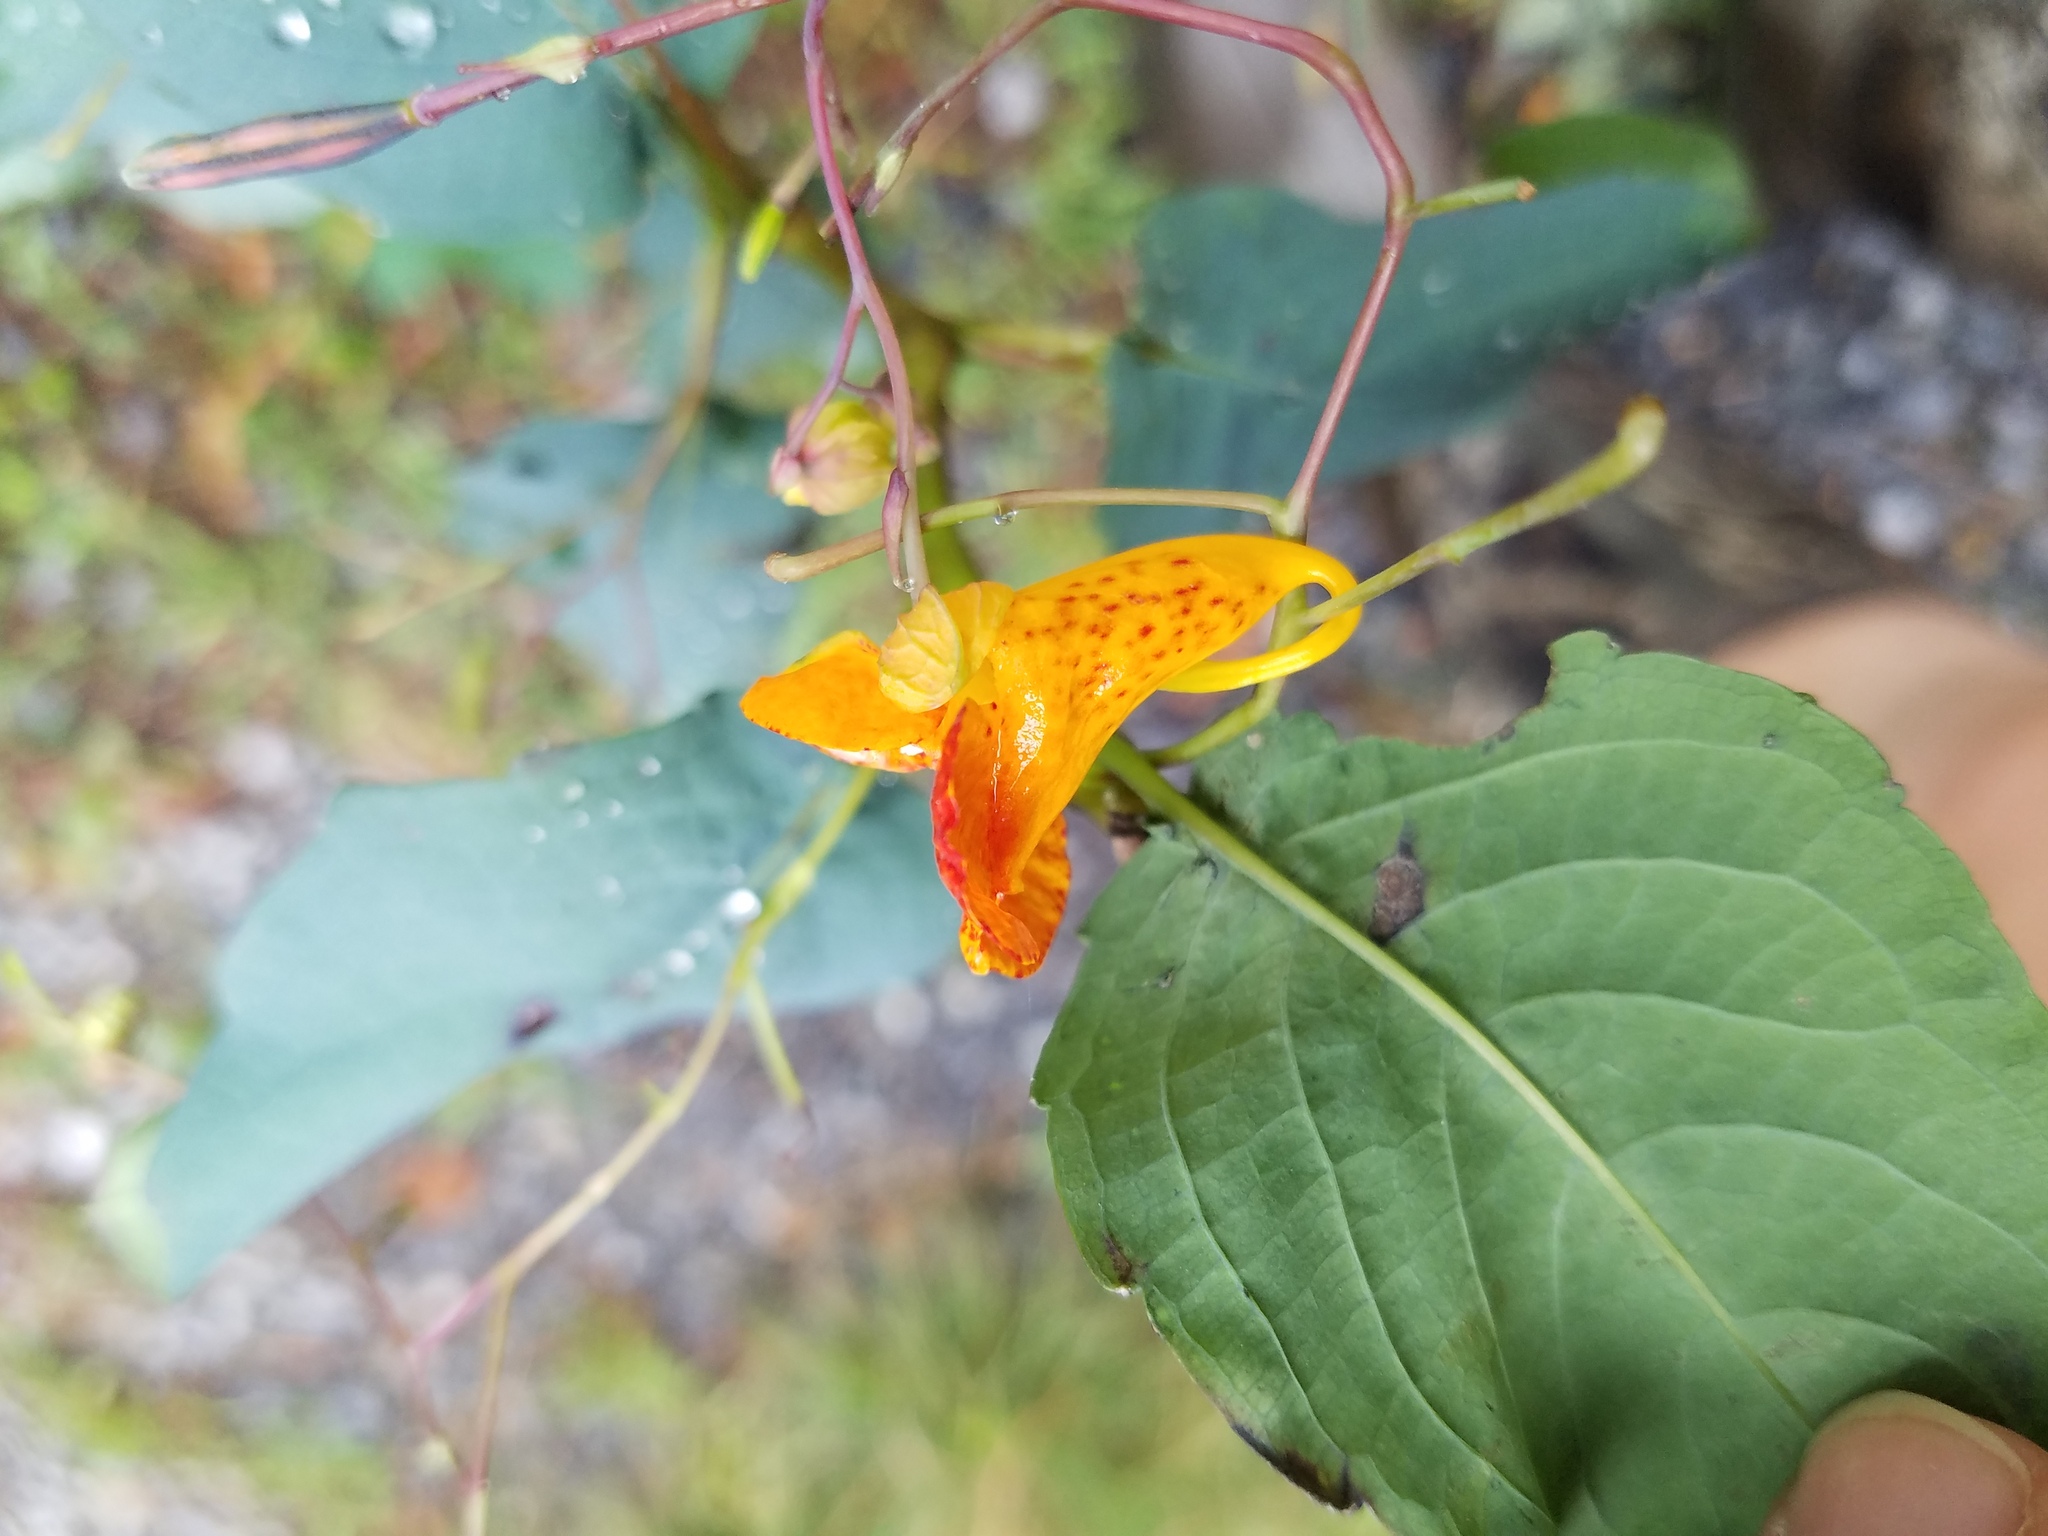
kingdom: Plantae
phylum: Tracheophyta
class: Magnoliopsida
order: Ericales
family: Balsaminaceae
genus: Impatiens
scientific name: Impatiens capensis
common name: Orange balsam
